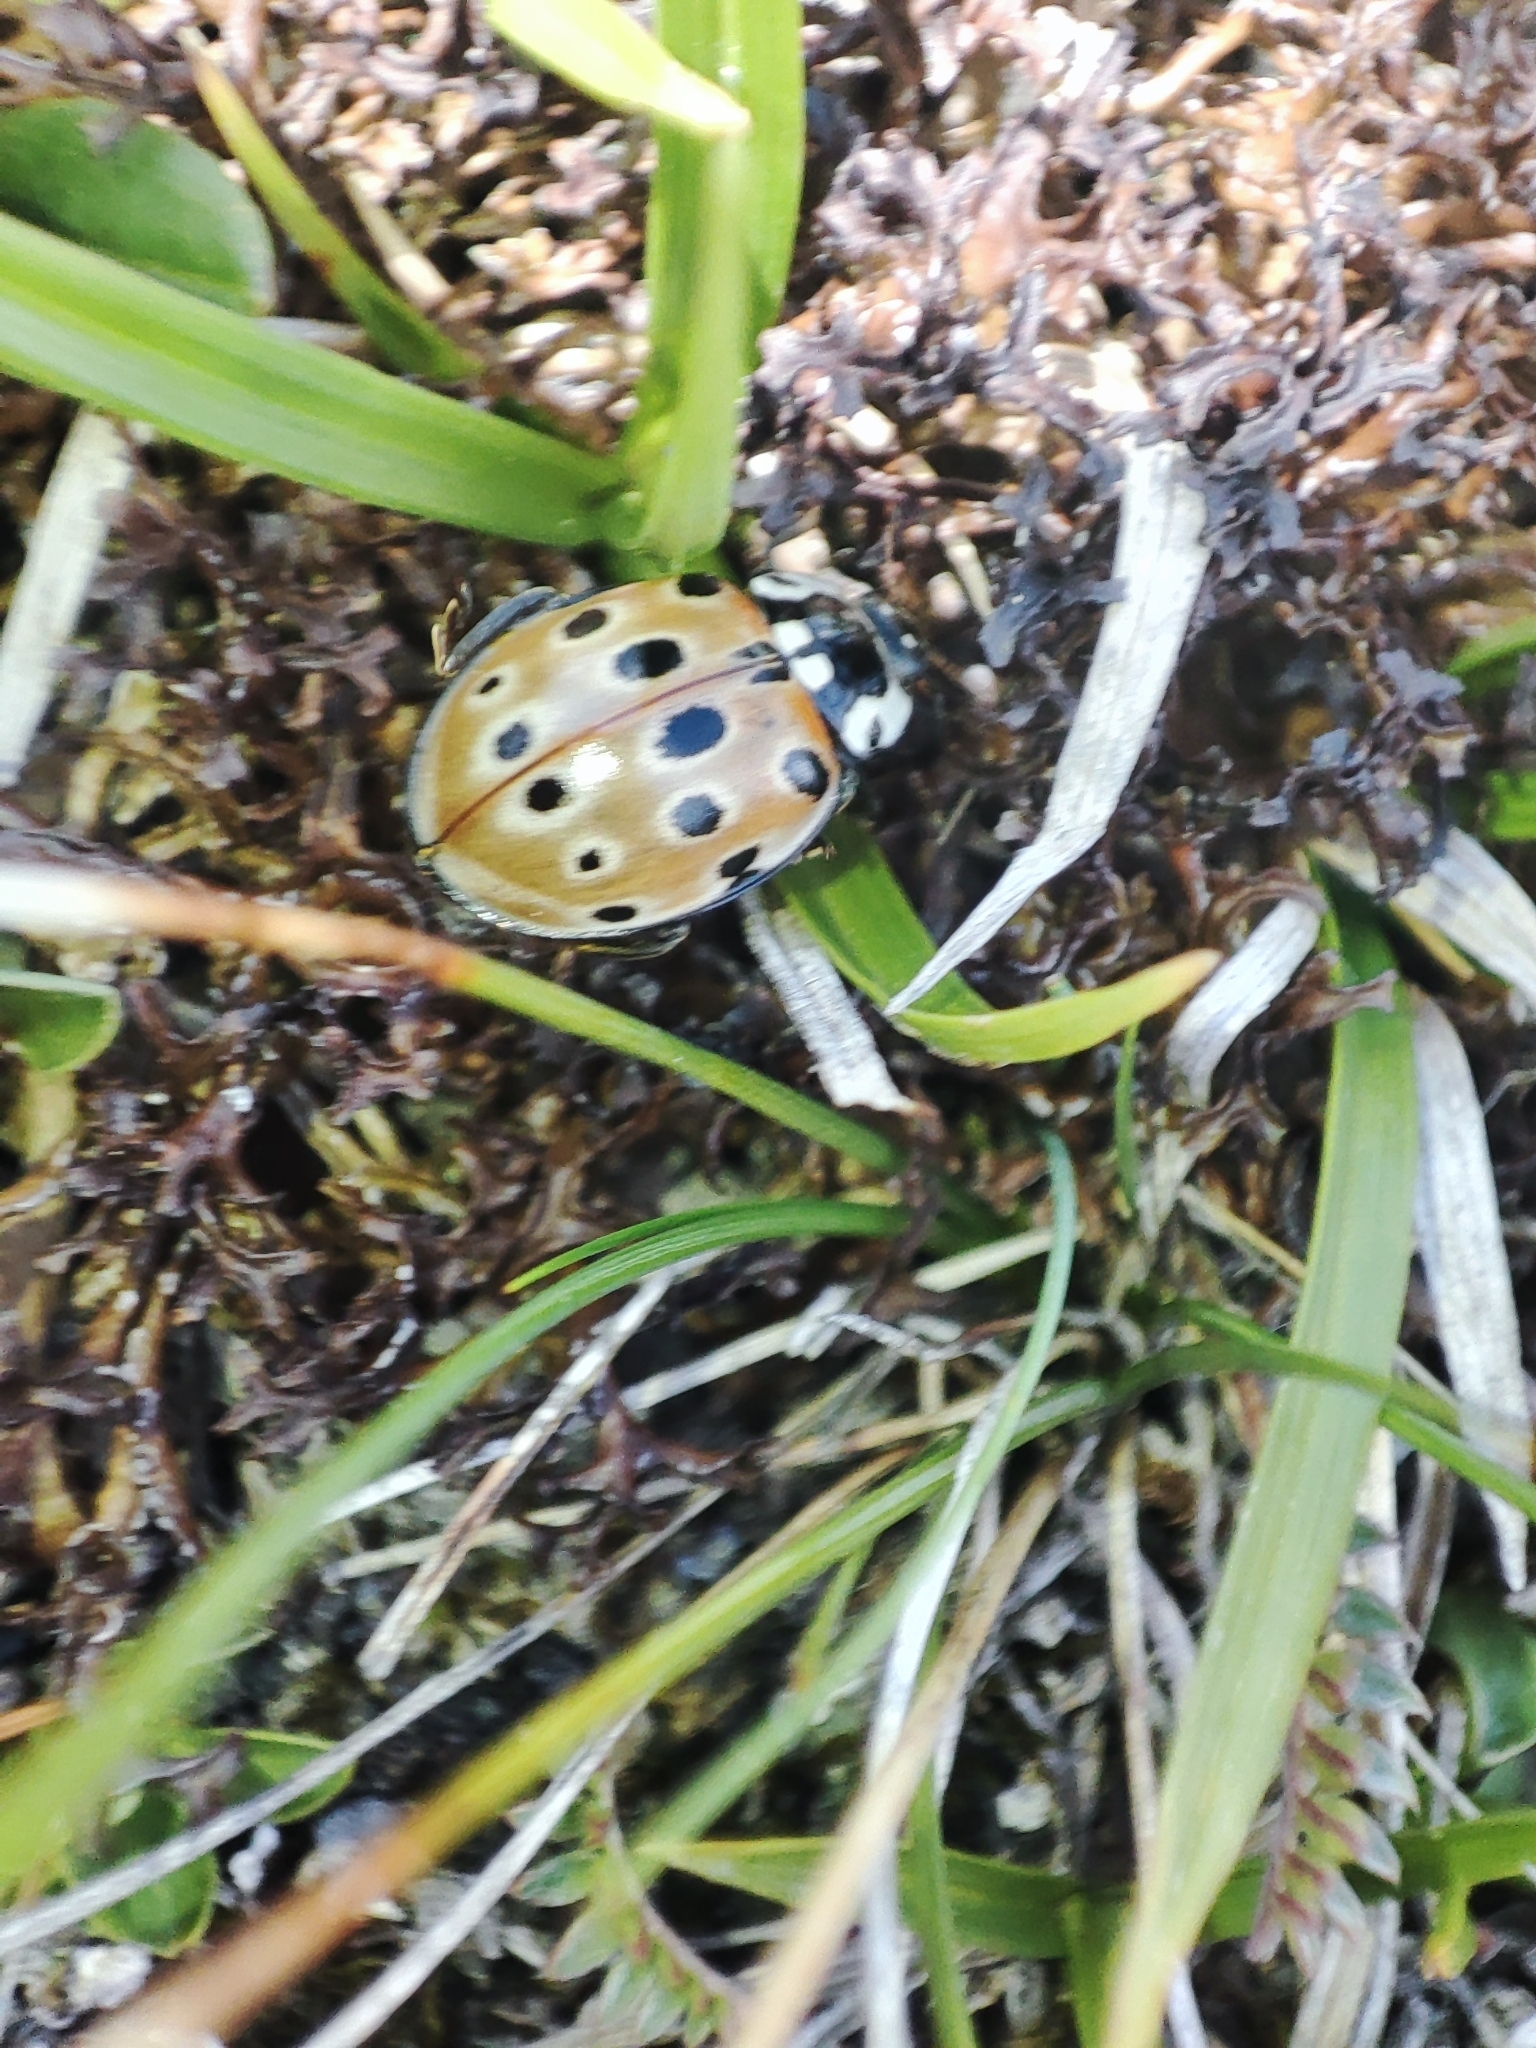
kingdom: Animalia
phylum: Arthropoda
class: Insecta
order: Coleoptera
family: Coccinellidae
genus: Anatis
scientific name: Anatis ocellata
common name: Eyed ladybird
